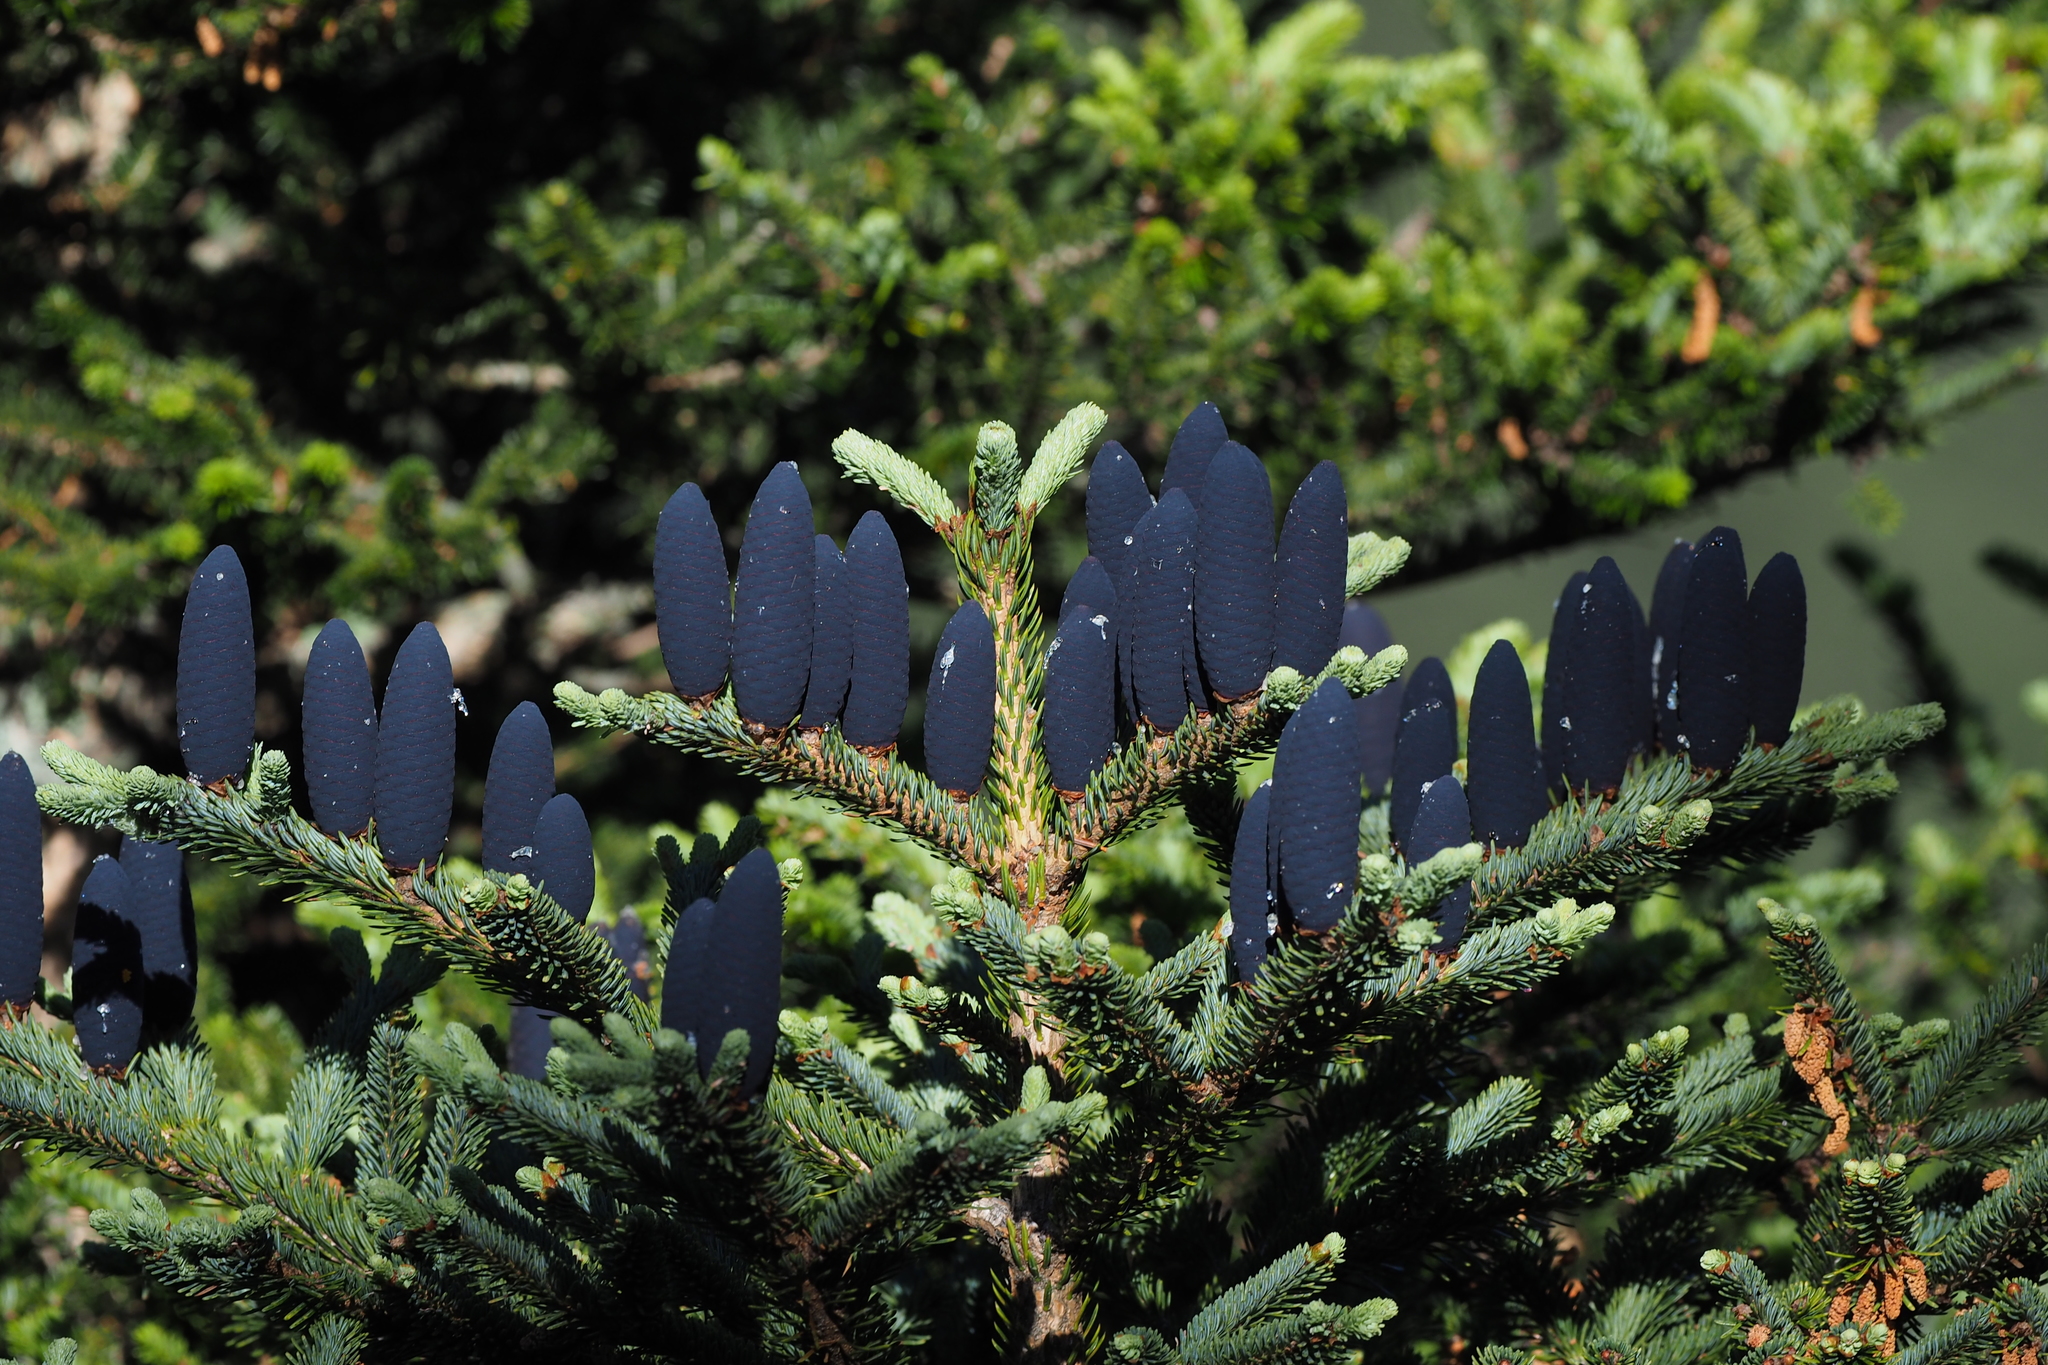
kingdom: Plantae
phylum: Tracheophyta
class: Pinopsida
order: Pinales
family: Pinaceae
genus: Abies
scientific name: Abies kawakamii
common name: Taiwan fir
